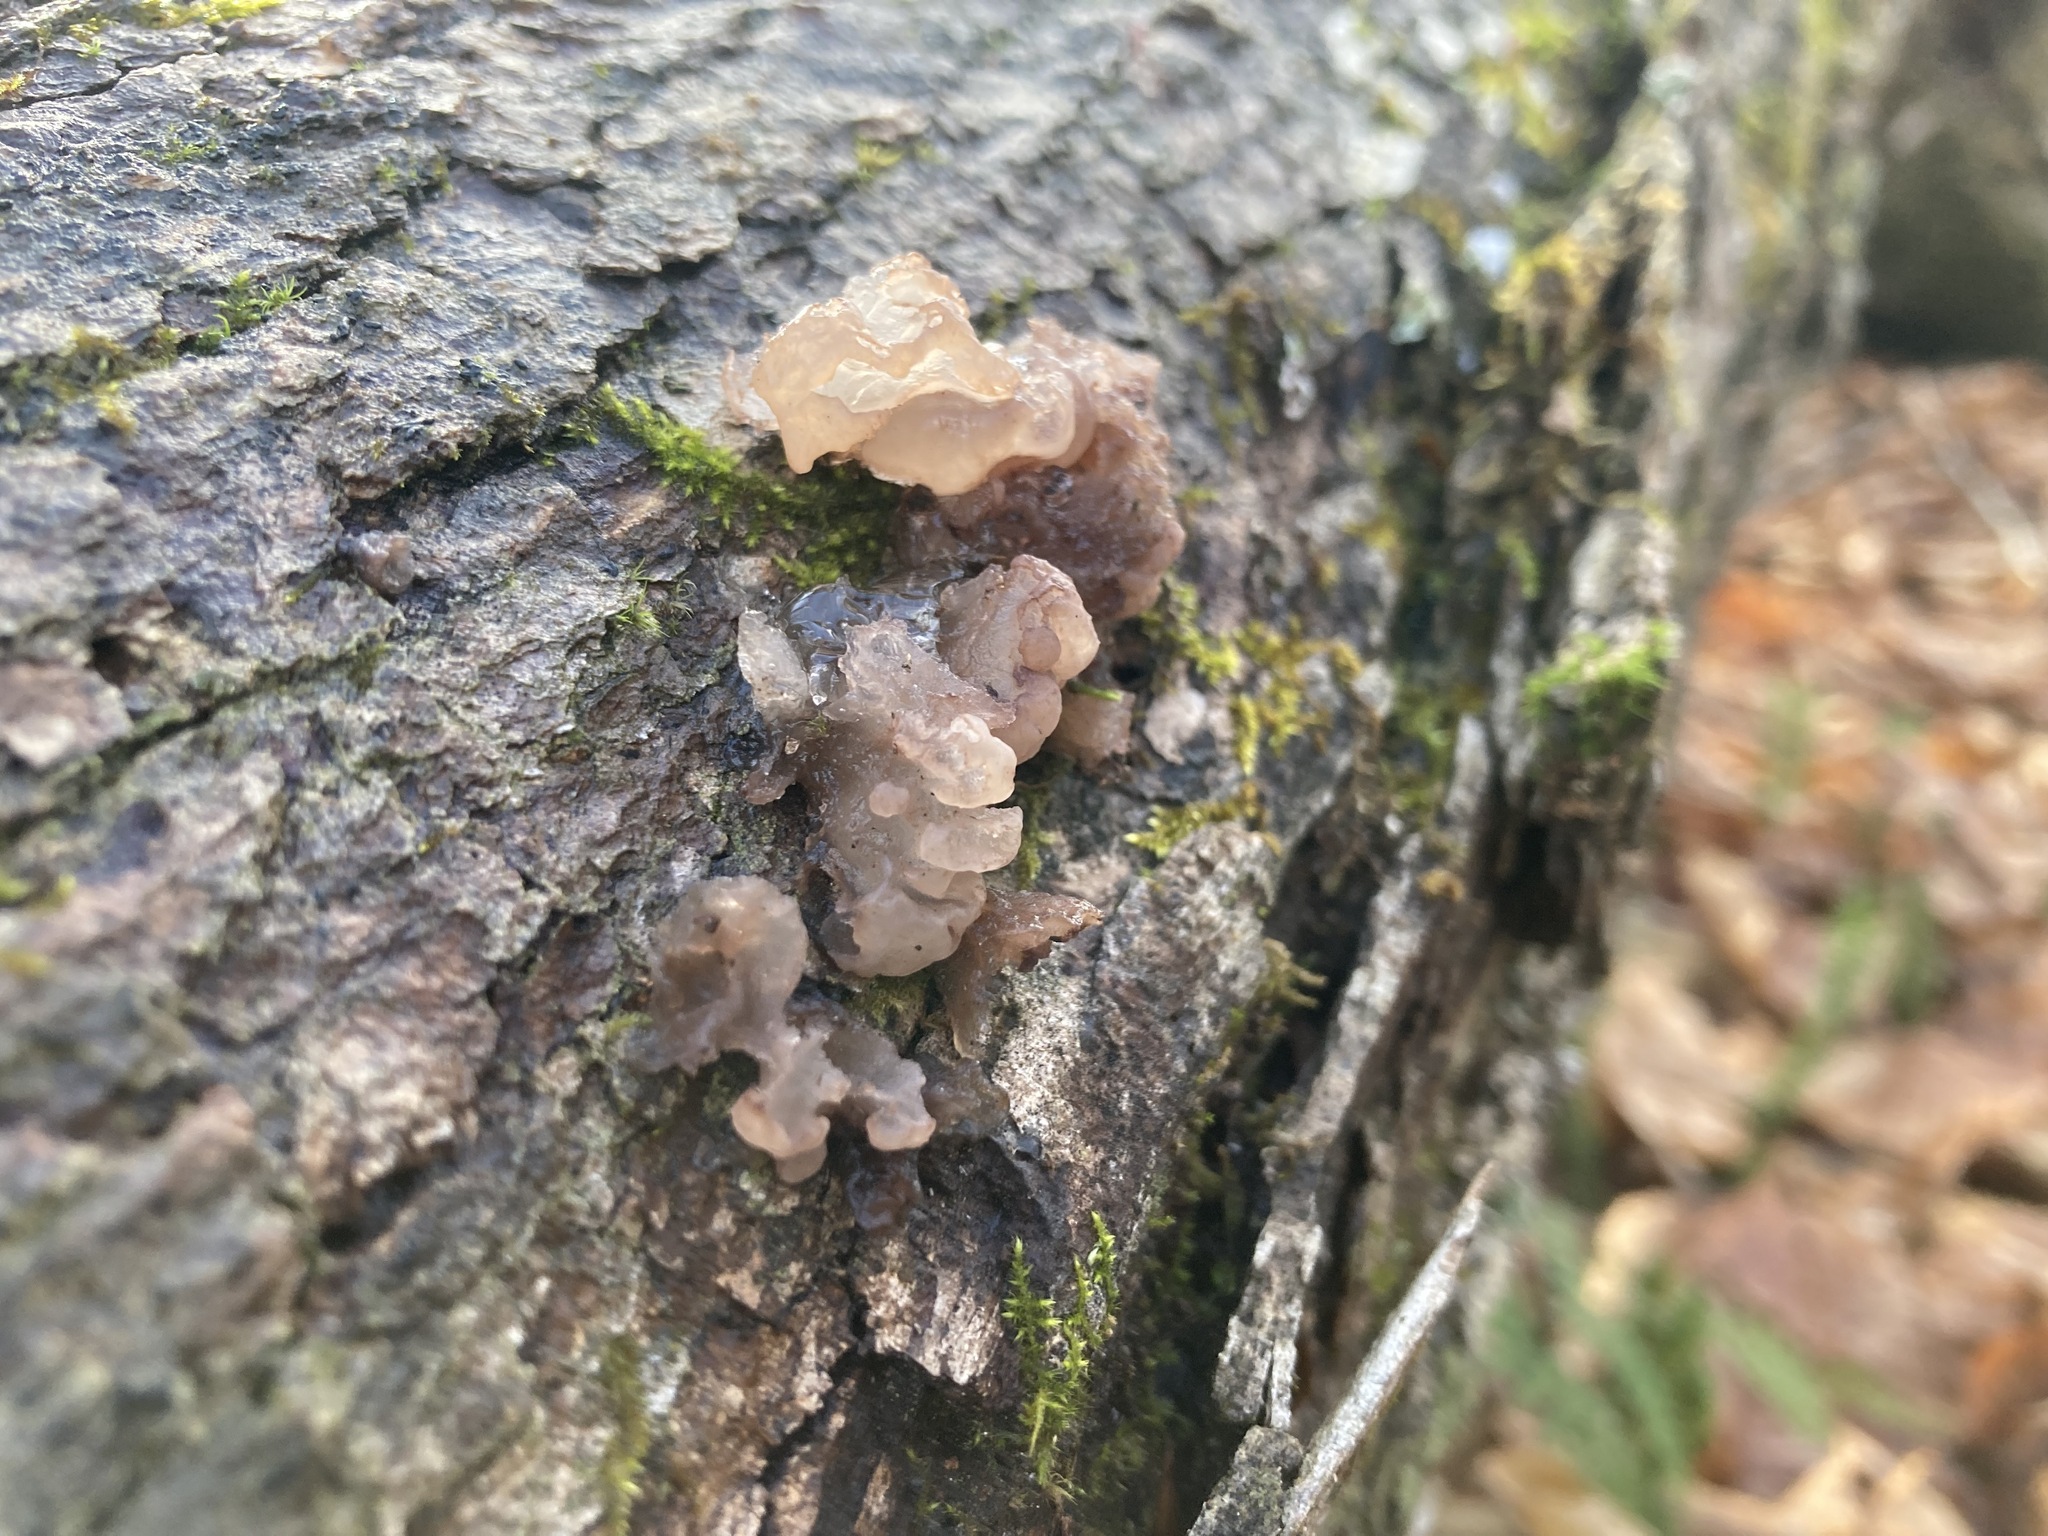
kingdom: Fungi
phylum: Basidiomycota
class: Agaricomycetes
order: Auriculariales
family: Hyaloriaceae
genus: Myxarium
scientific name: Myxarium nucleatum
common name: Crystal brain fungus
